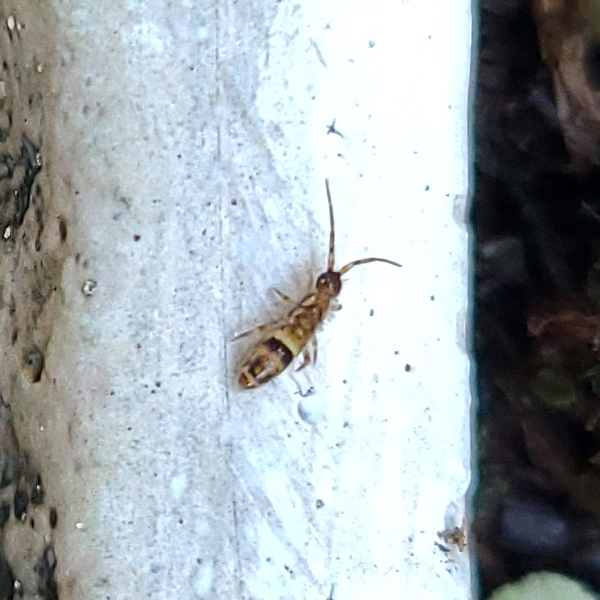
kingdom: Animalia
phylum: Arthropoda
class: Collembola
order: Entomobryomorpha
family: Orchesellidae
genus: Orchesella
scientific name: Orchesella cincta
